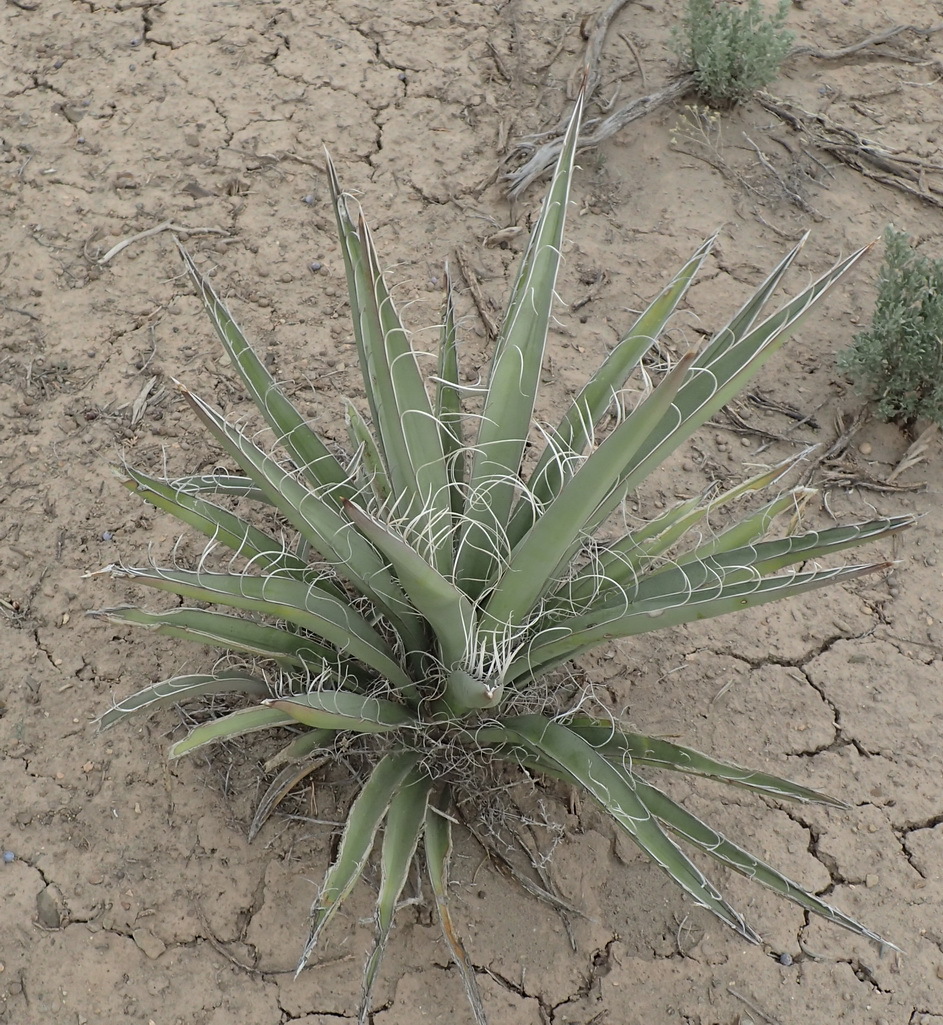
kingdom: Plantae
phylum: Tracheophyta
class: Liliopsida
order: Asparagales
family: Asparagaceae
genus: Yucca
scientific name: Yucca baccata
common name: Banana yucca
